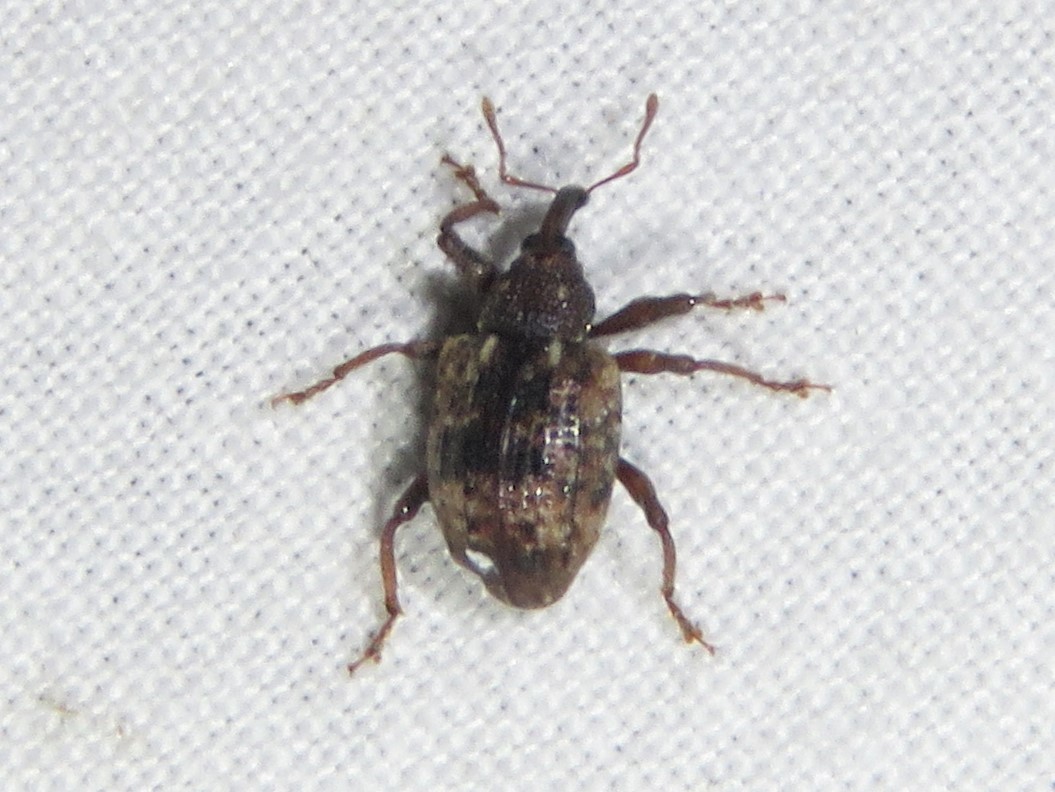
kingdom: Animalia
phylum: Arthropoda
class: Insecta
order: Coleoptera
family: Curculionidae
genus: Conotrachelus
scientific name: Conotrachelus geminatus
